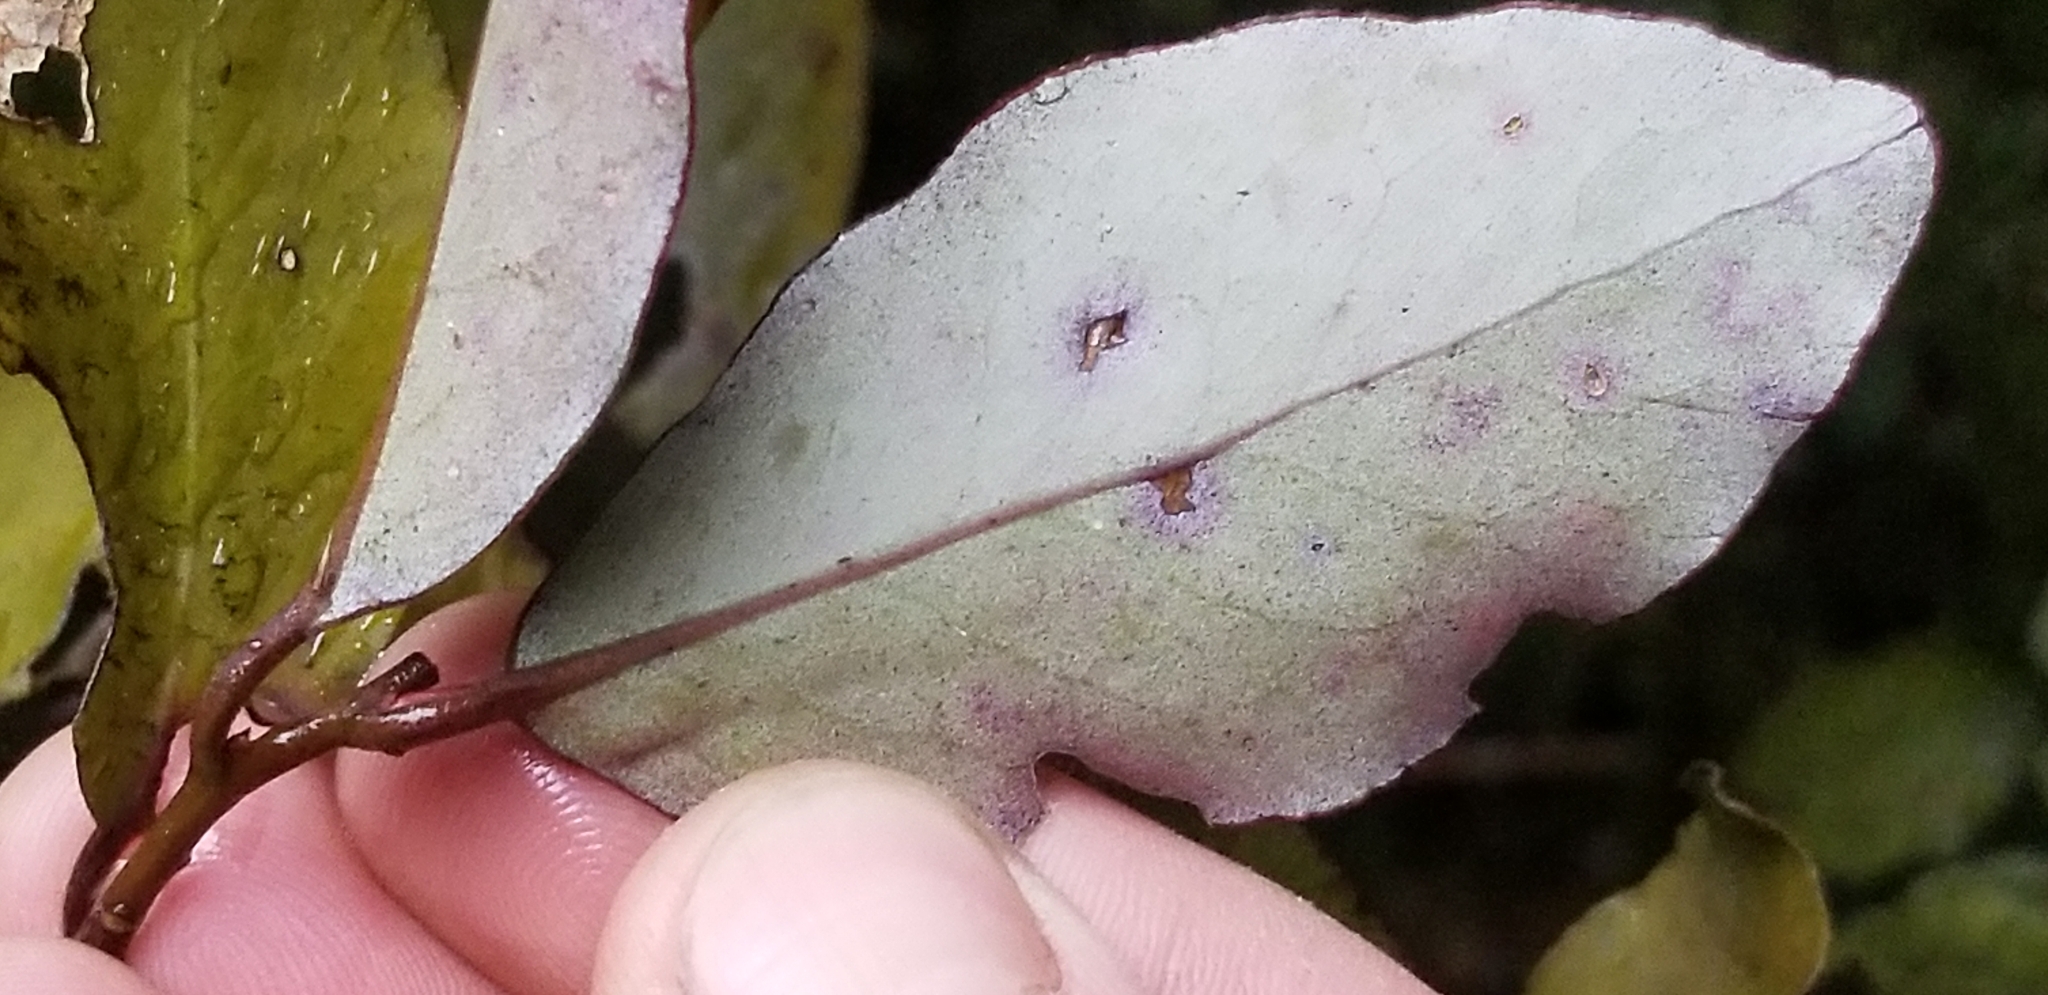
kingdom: Plantae
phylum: Tracheophyta
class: Magnoliopsida
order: Canellales
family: Winteraceae
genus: Pseudowintera
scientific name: Pseudowintera colorata
